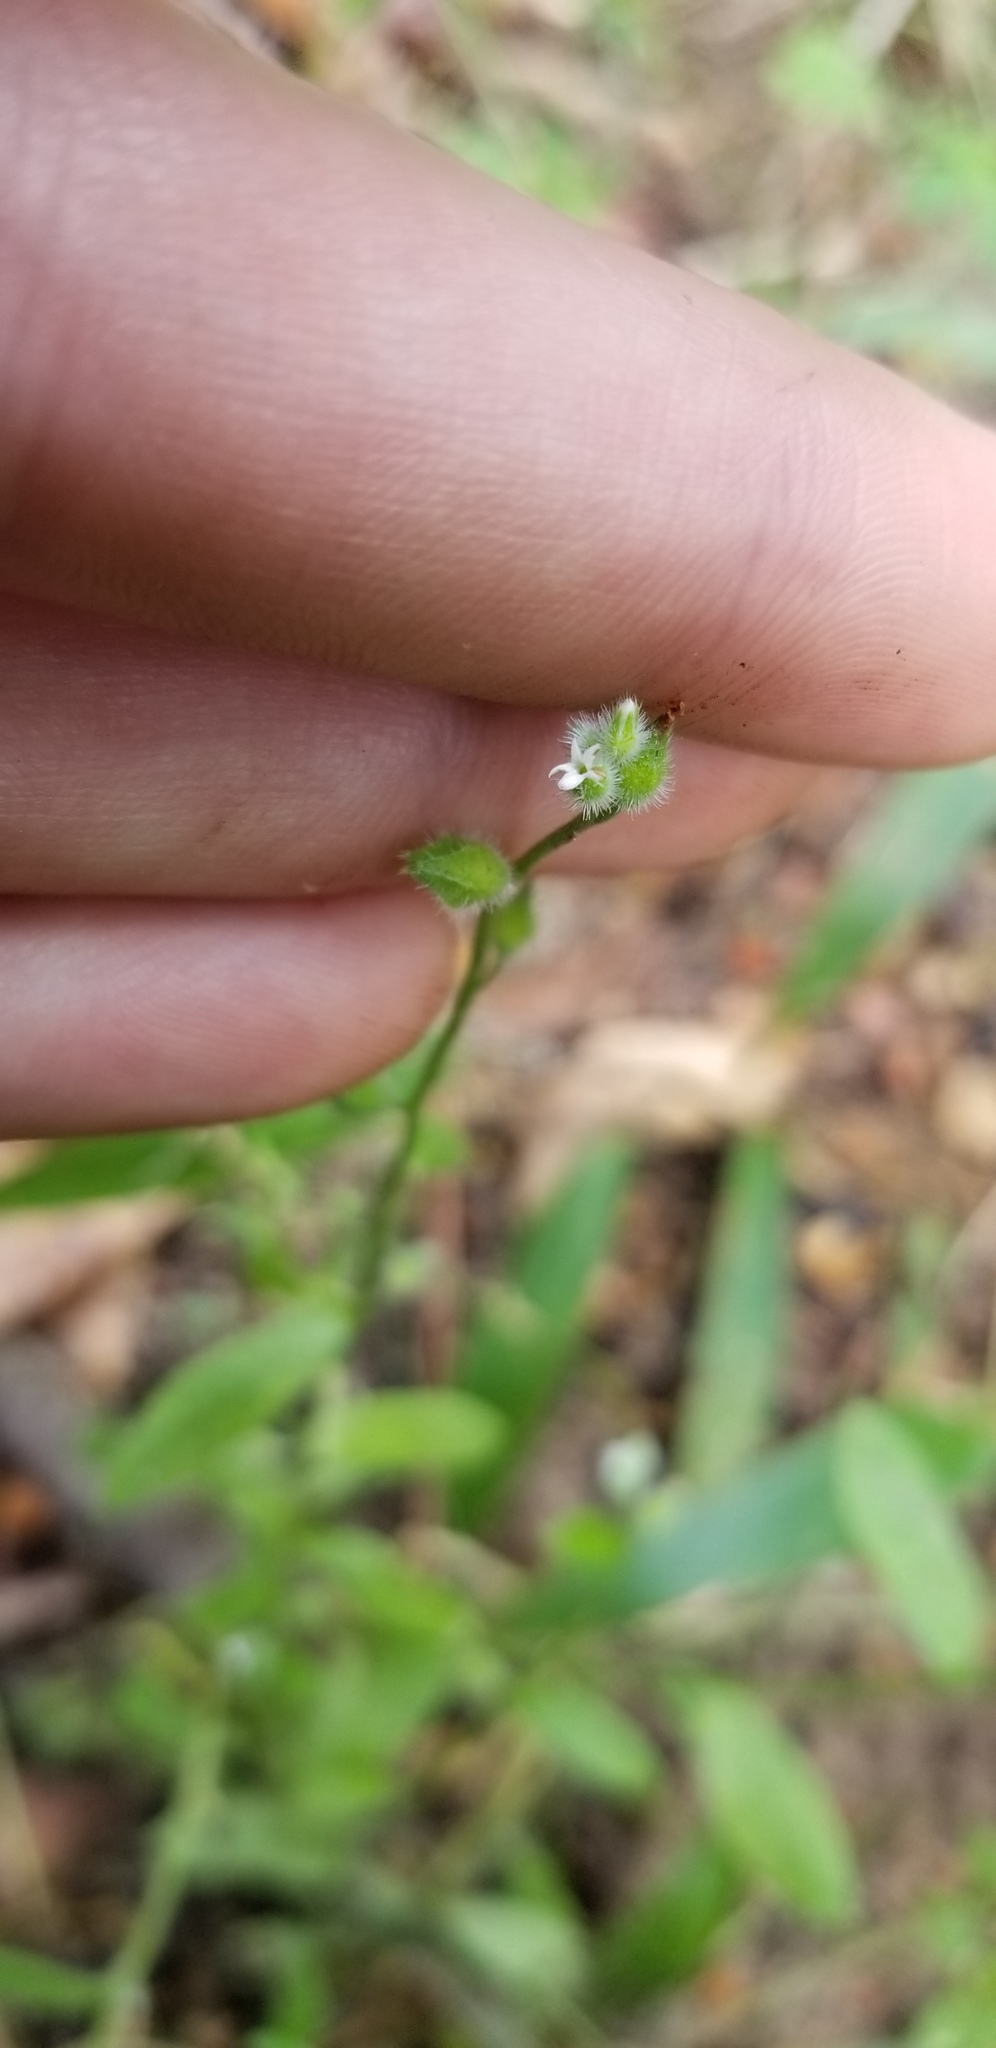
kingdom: Plantae
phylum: Tracheophyta
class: Magnoliopsida
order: Boraginales
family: Boraginaceae
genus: Myosotis
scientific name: Myosotis macrosperma
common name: Large-seed forget-me-not
